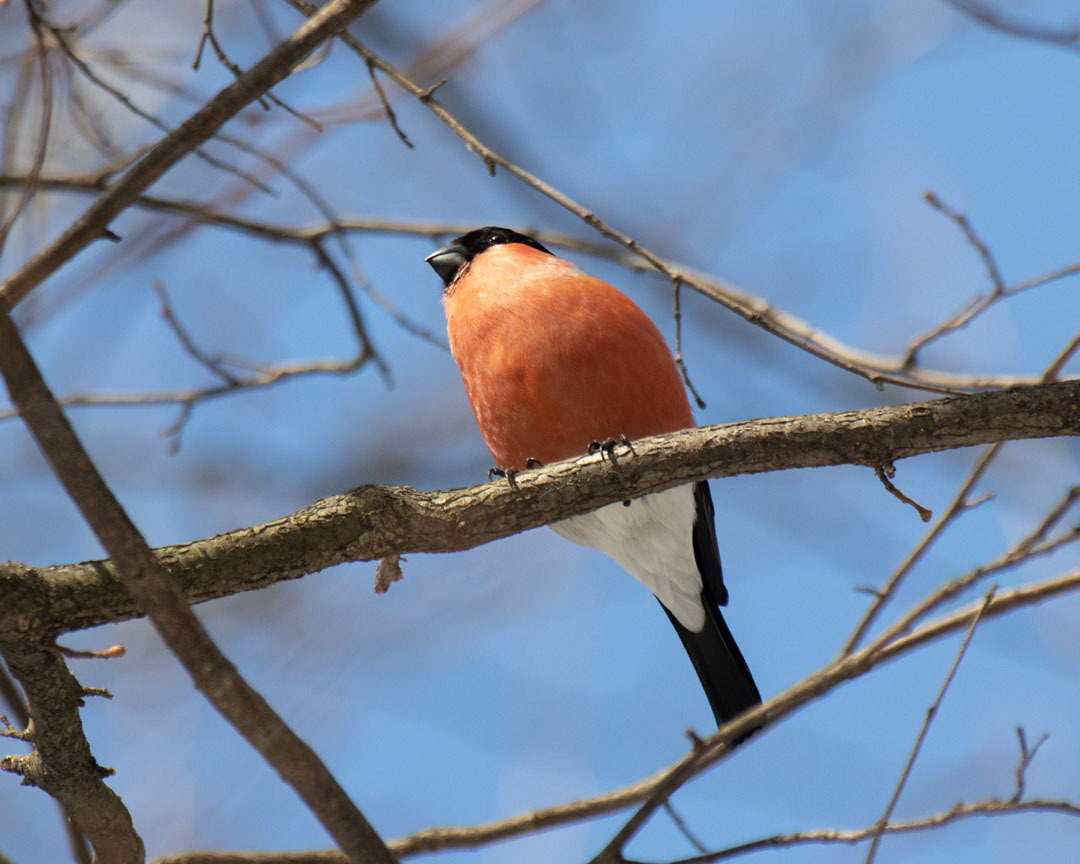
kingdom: Animalia
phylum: Chordata
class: Aves
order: Passeriformes
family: Fringillidae
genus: Pyrrhula
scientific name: Pyrrhula pyrrhula
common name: Eurasian bullfinch
